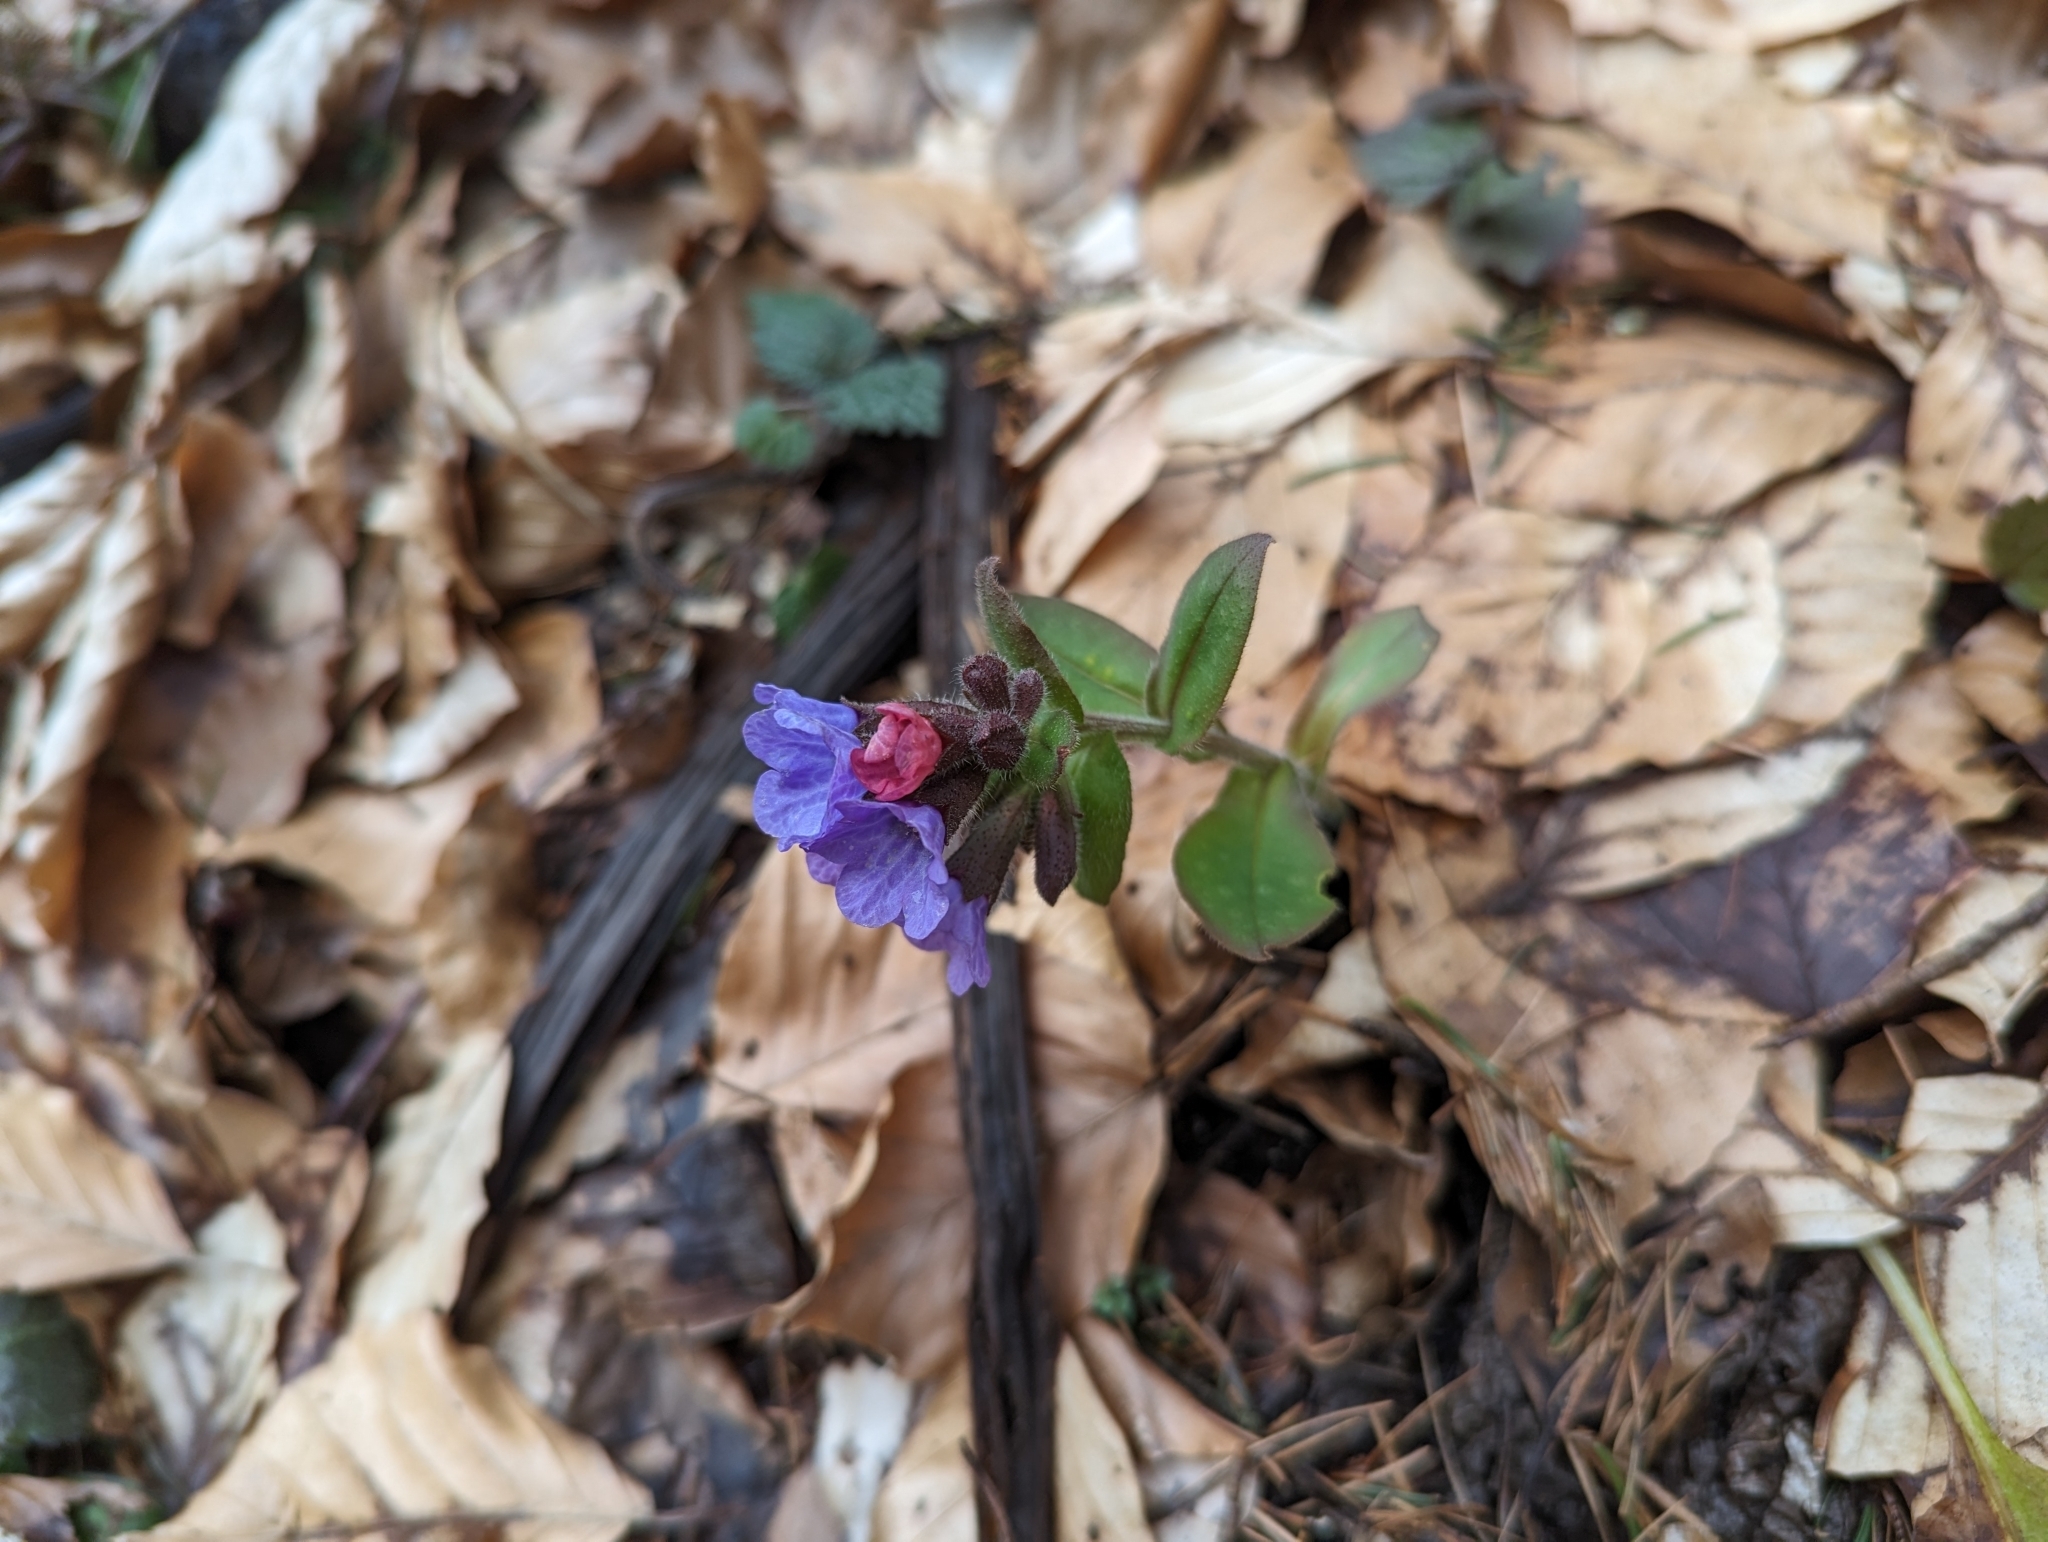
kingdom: Plantae
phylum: Tracheophyta
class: Magnoliopsida
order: Boraginales
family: Boraginaceae
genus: Pulmonaria
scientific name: Pulmonaria officinalis
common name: Lungwort
